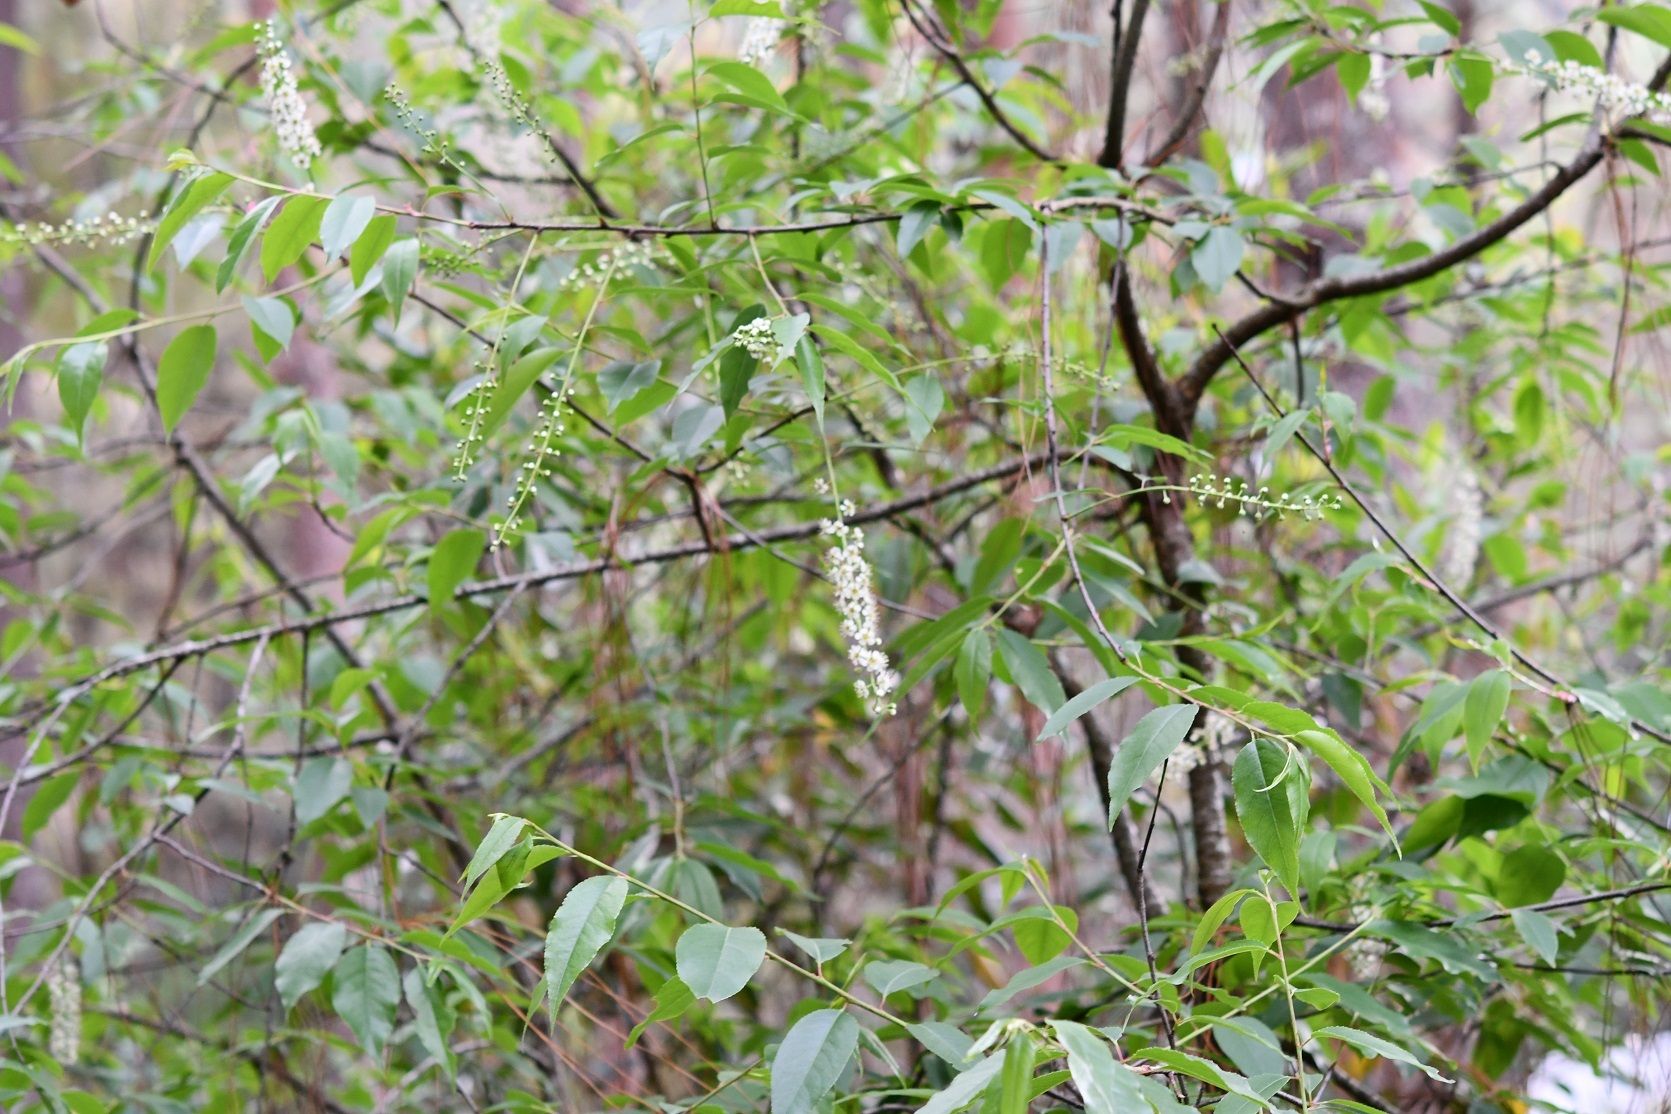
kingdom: Plantae
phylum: Tracheophyta
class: Magnoliopsida
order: Rosales
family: Rosaceae
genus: Prunus
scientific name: Prunus serotina
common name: Black cherry
